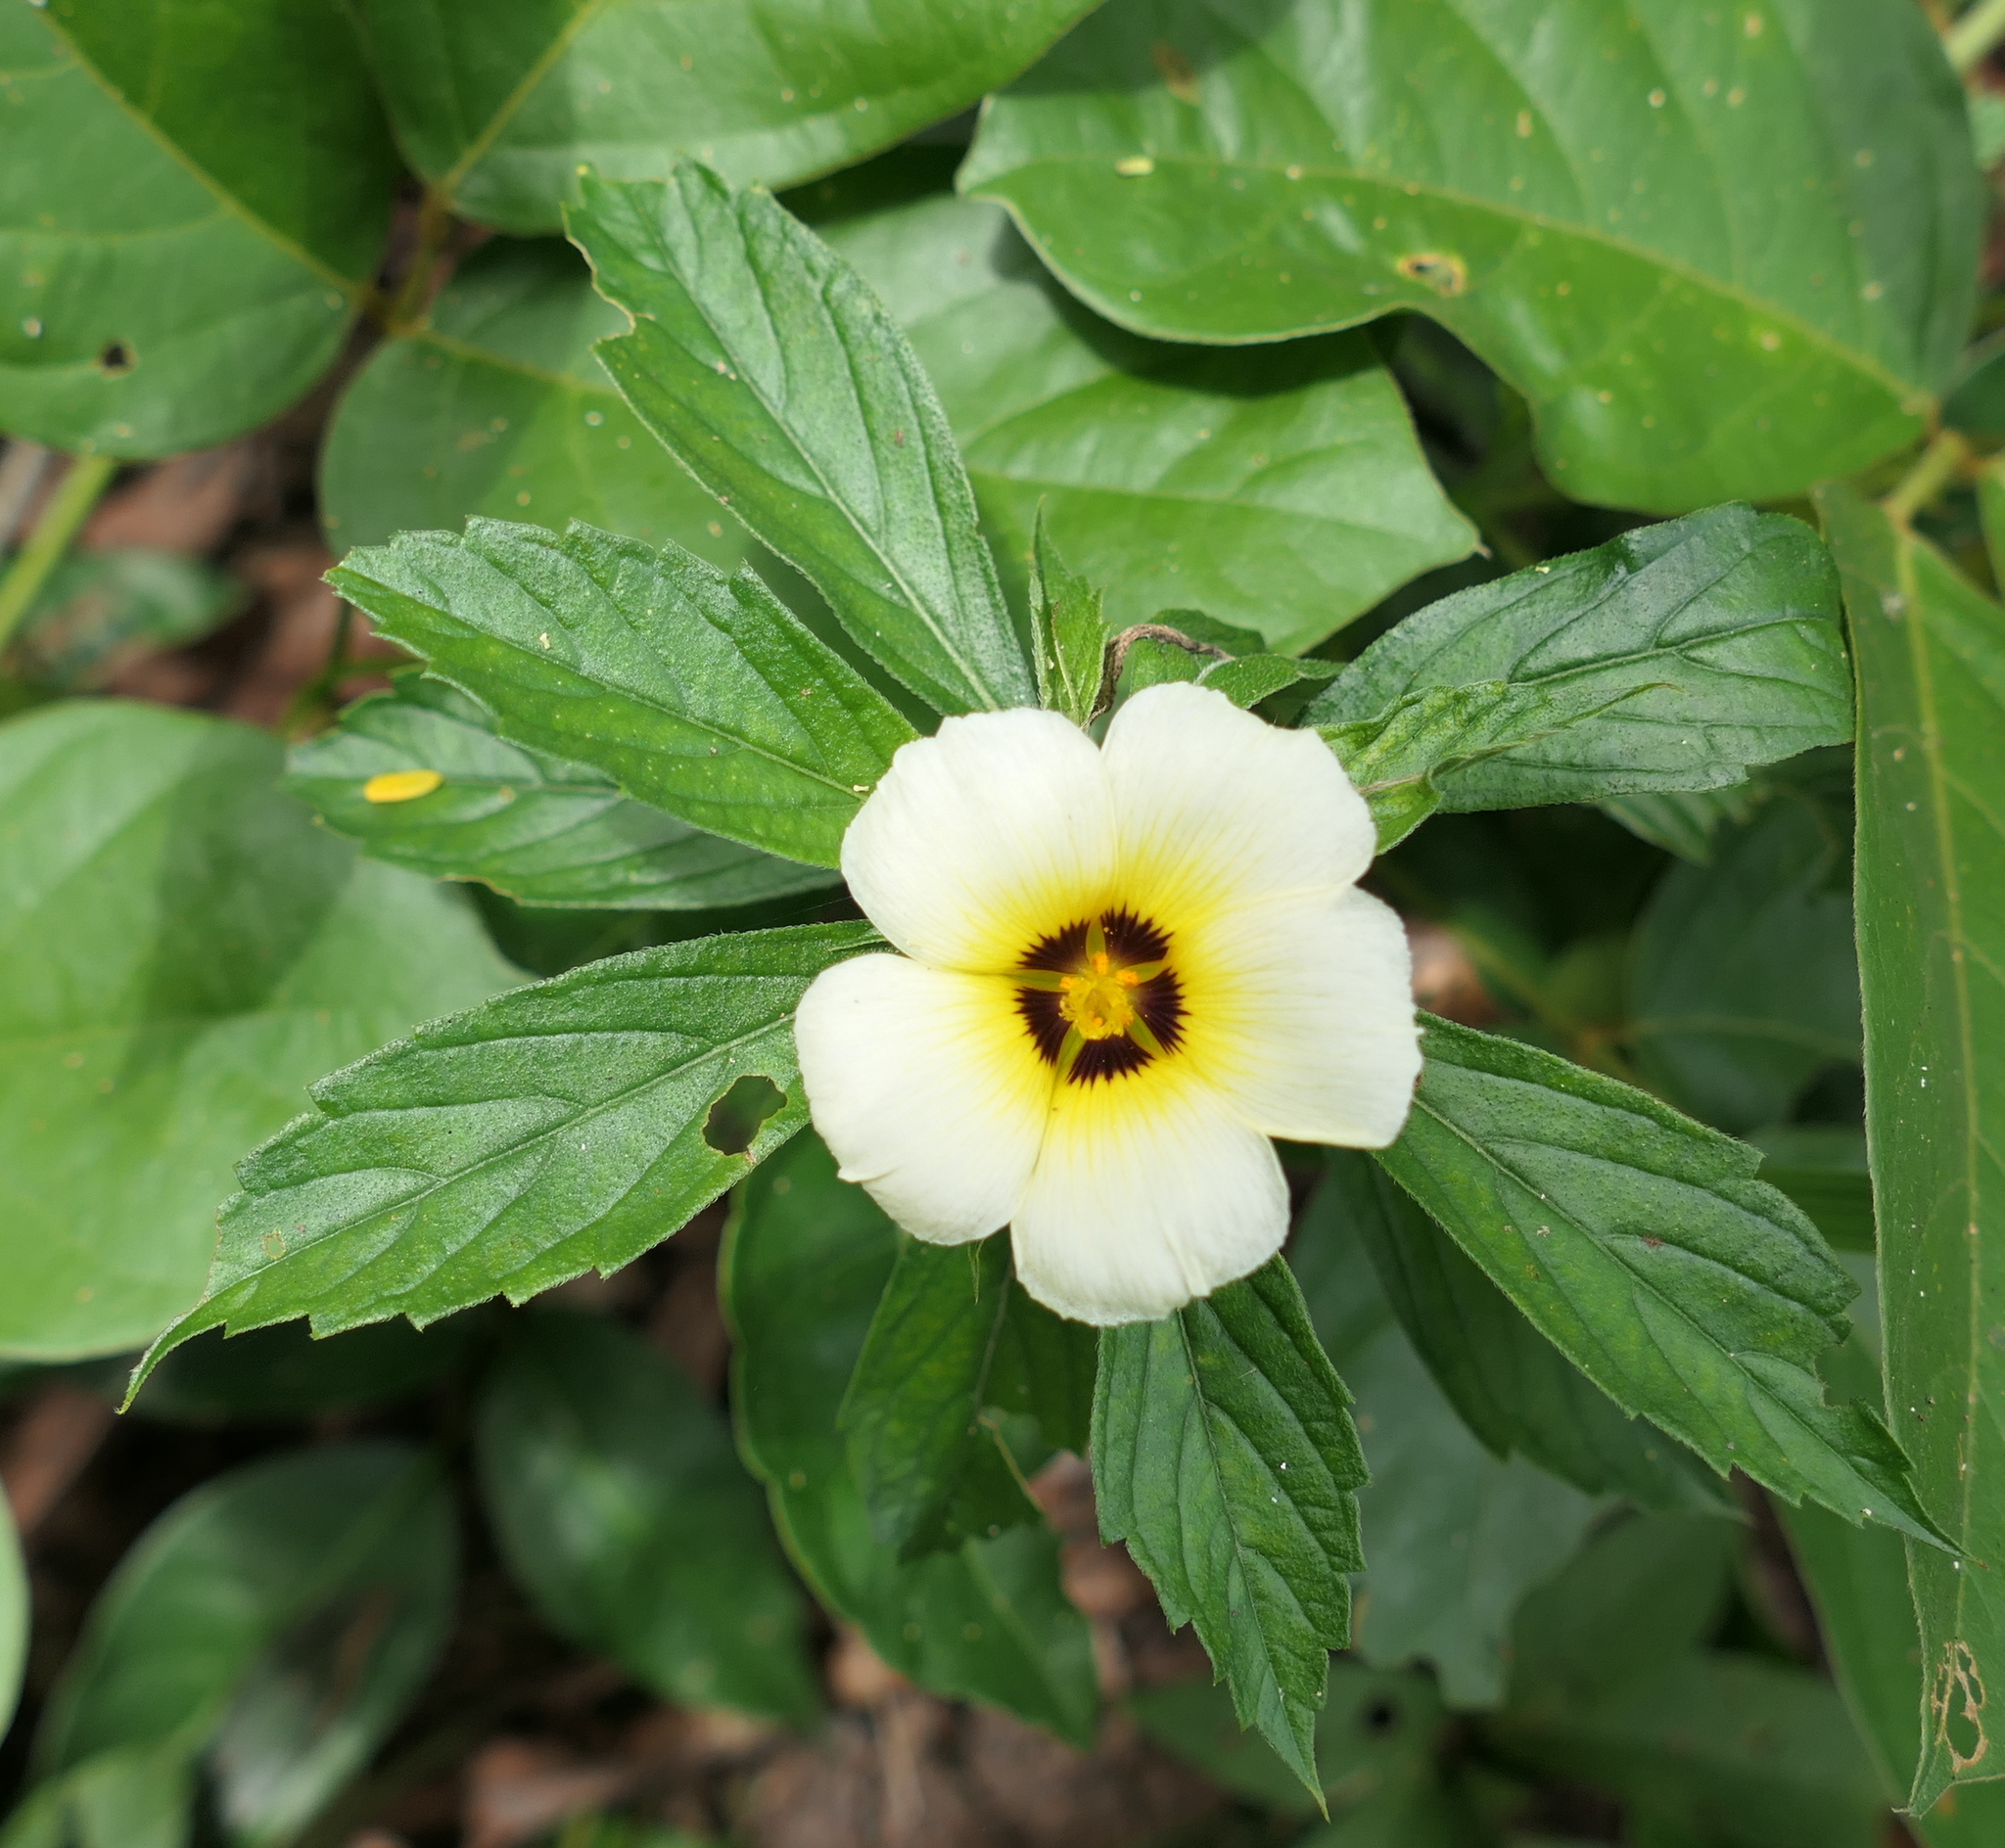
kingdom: Plantae
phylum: Tracheophyta
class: Magnoliopsida
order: Malpighiales
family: Turneraceae
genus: Turnera
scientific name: Turnera subulata
